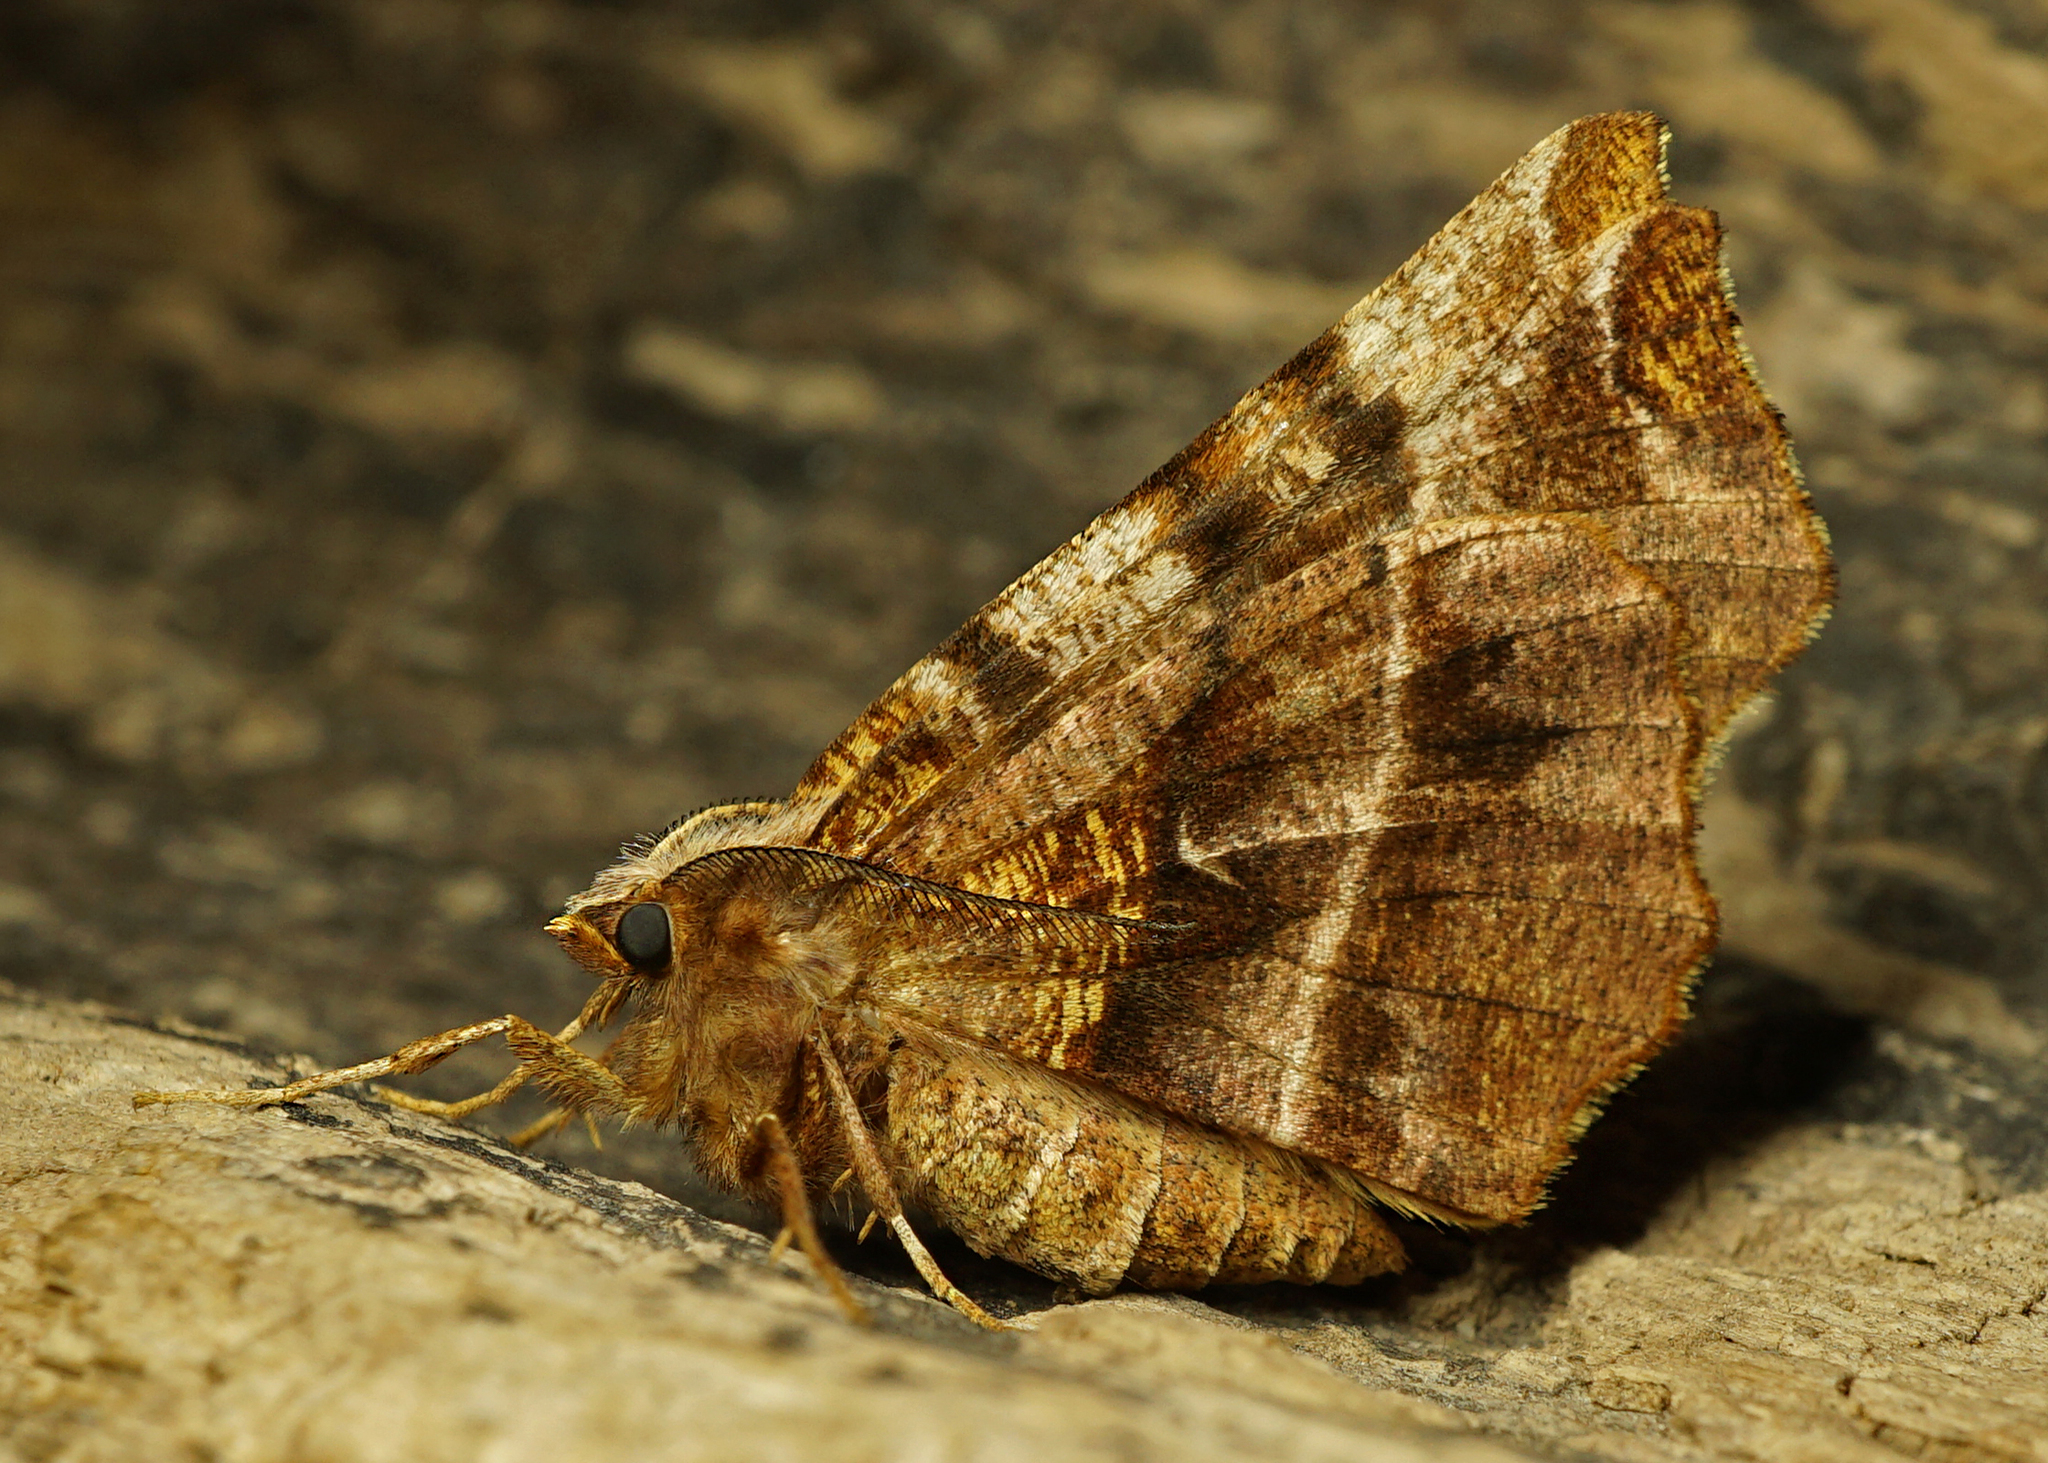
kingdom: Animalia
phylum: Arthropoda
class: Insecta
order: Lepidoptera
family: Geometridae
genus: Selenia
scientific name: Selenia dentaria
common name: Early thorn
